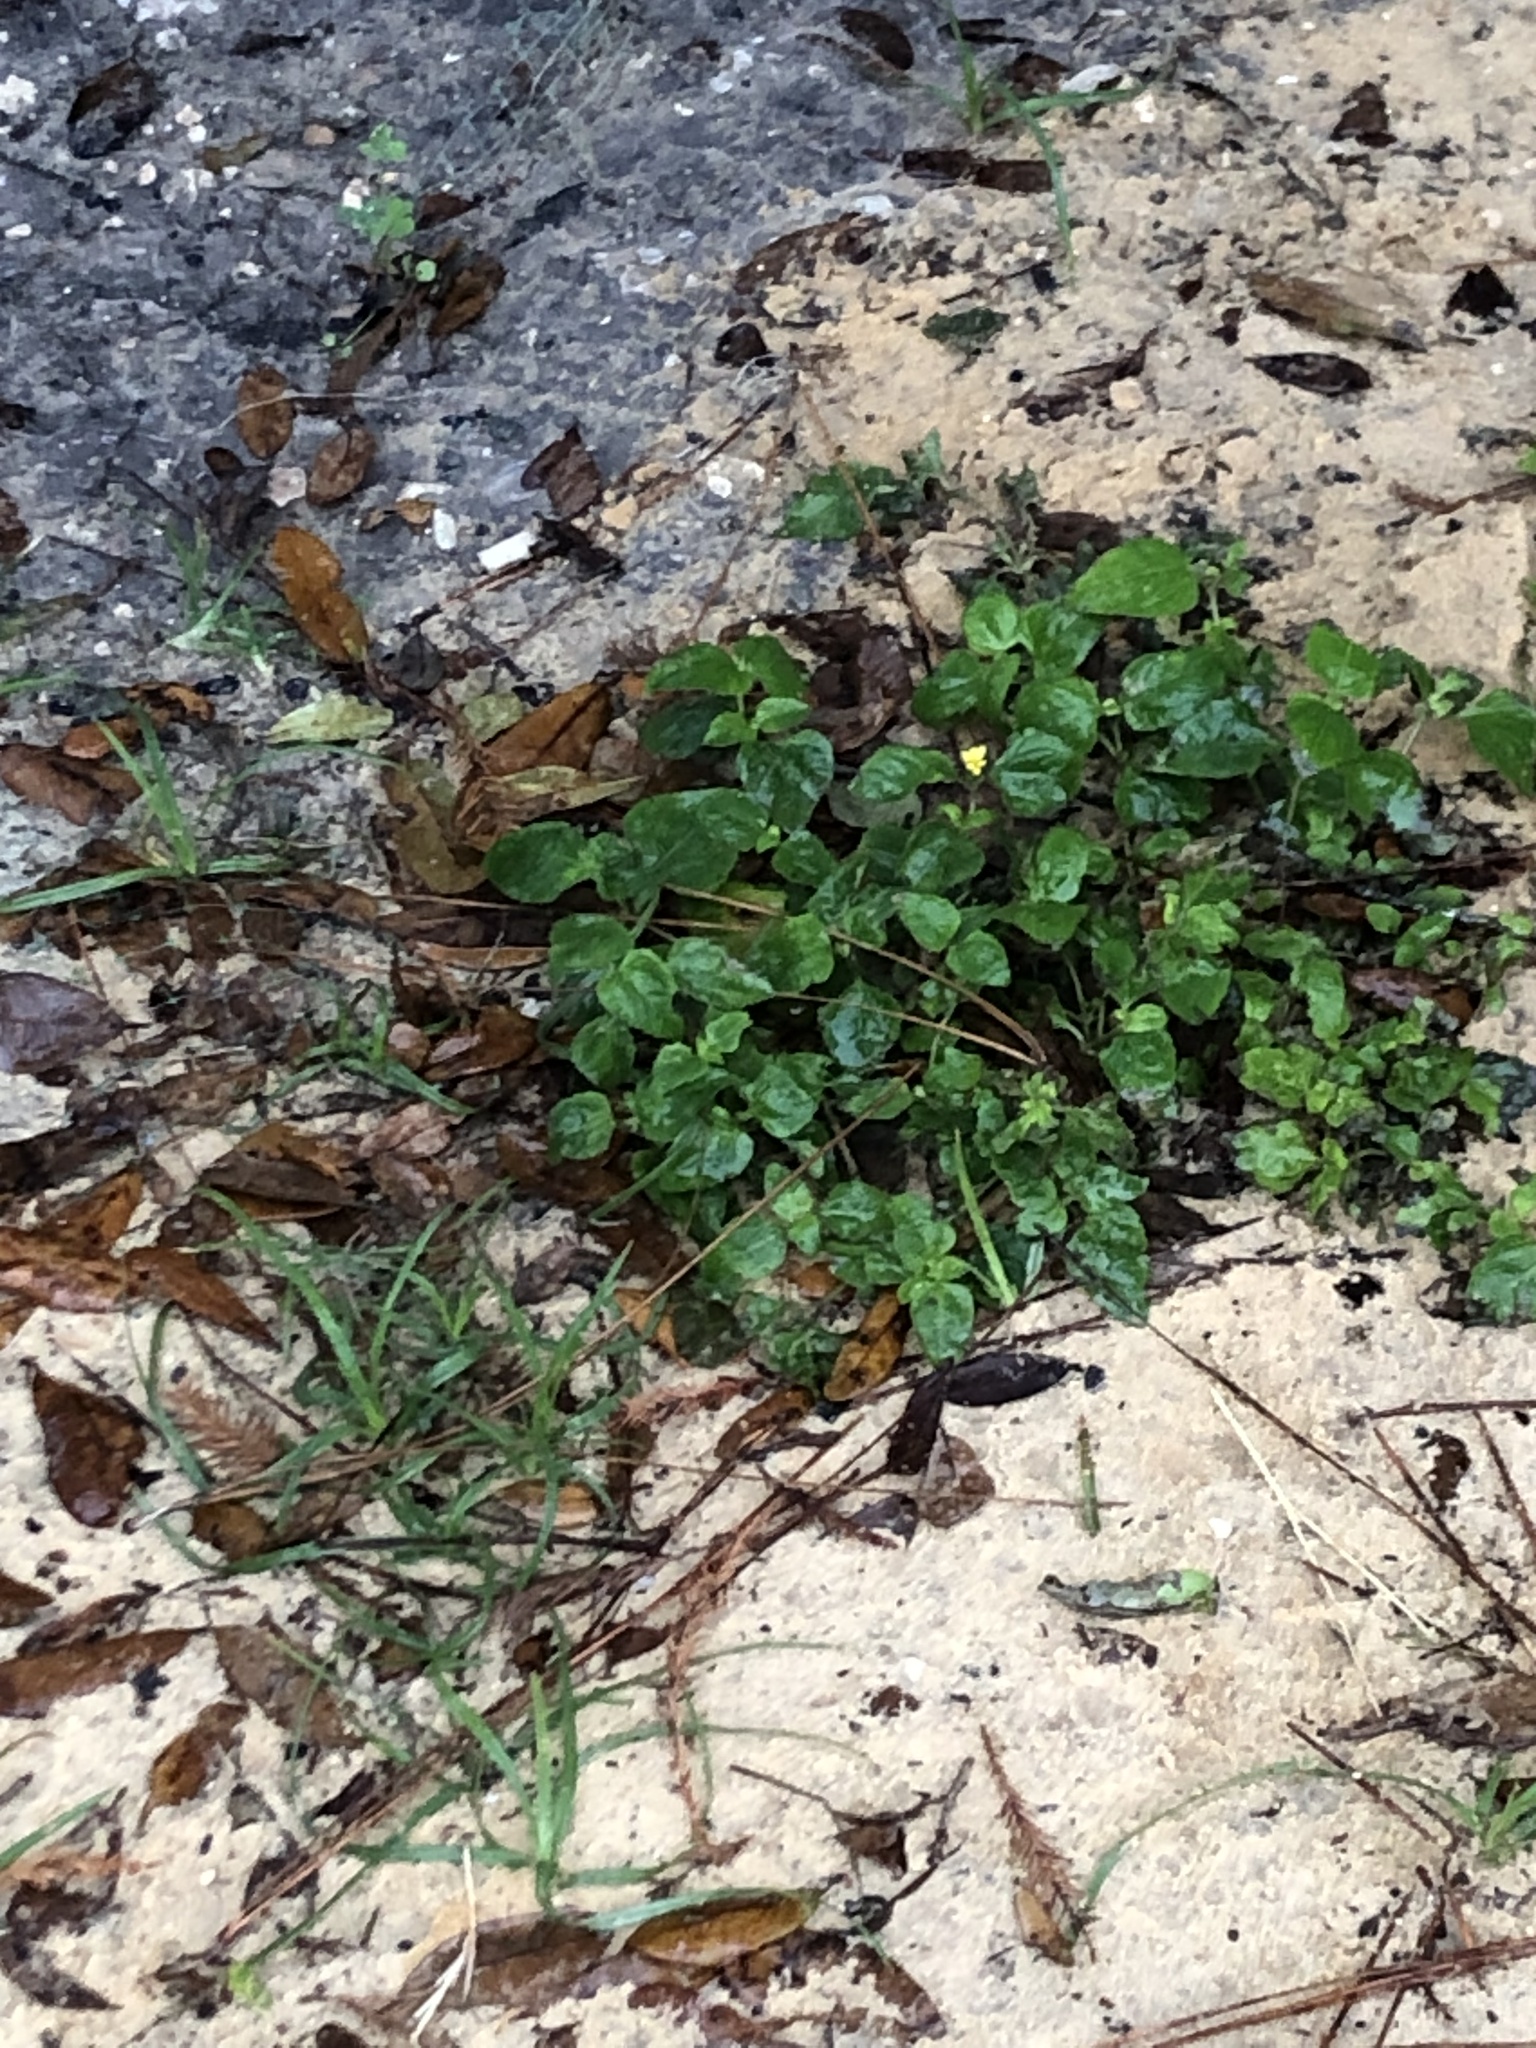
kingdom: Plantae
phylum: Tracheophyta
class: Magnoliopsida
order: Asterales
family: Asteraceae
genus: Calyptocarpus
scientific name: Calyptocarpus vialis
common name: Straggler daisy
